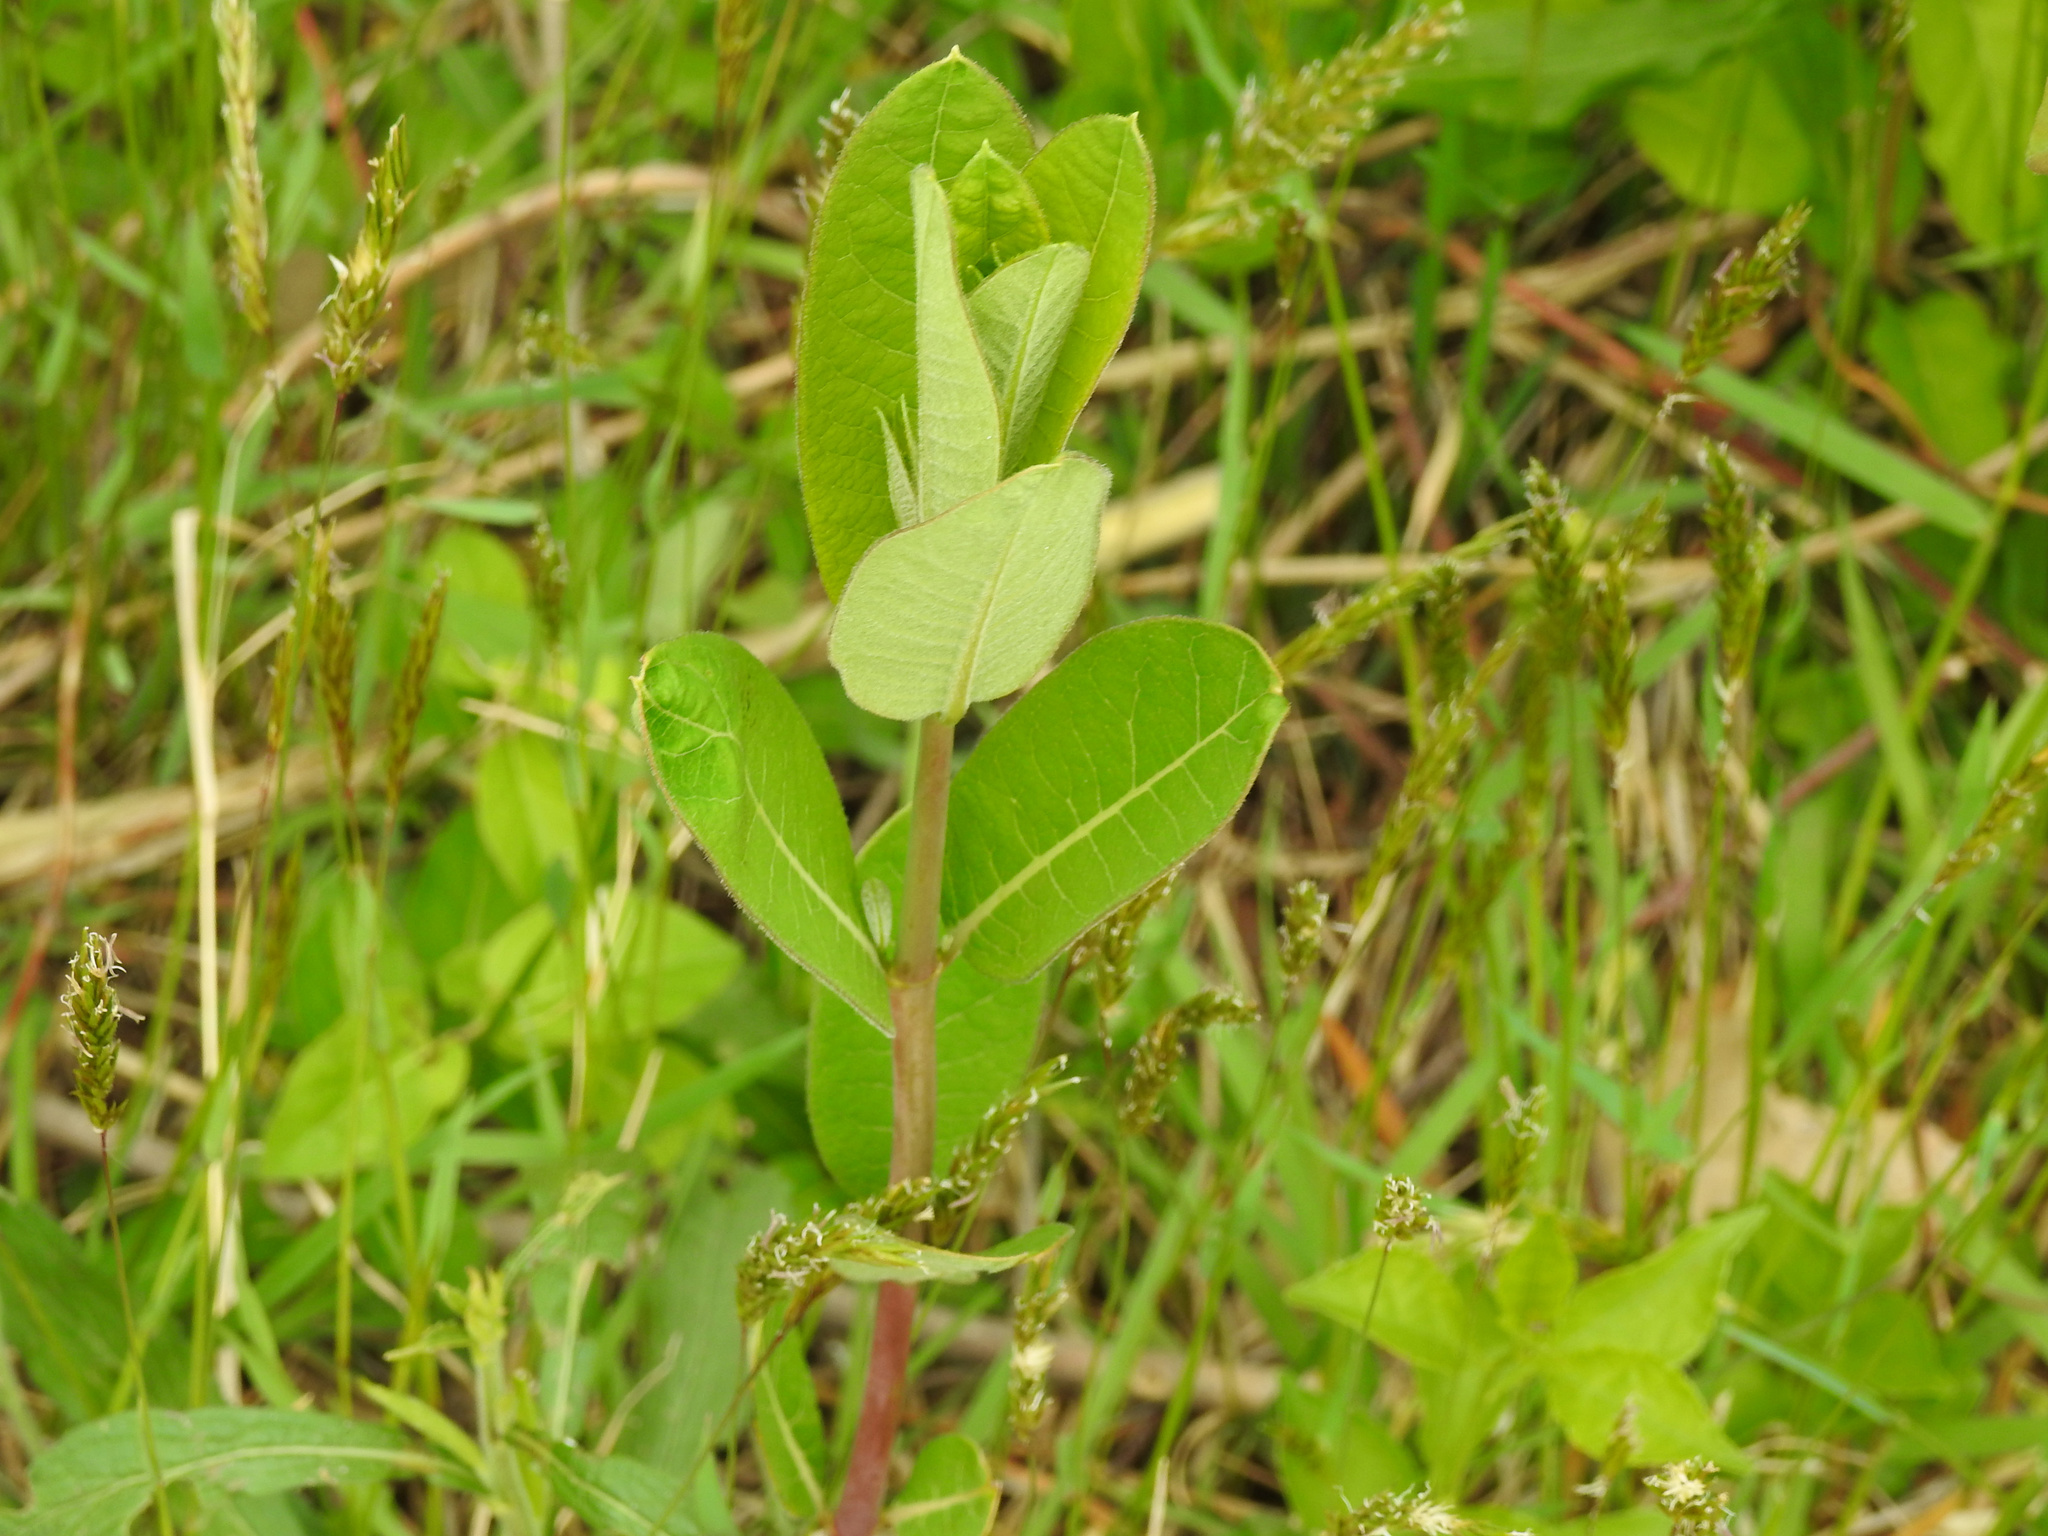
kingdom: Plantae
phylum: Tracheophyta
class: Magnoliopsida
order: Gentianales
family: Apocynaceae
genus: Apocynum
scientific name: Apocynum cannabinum
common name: Hemp dogbane
